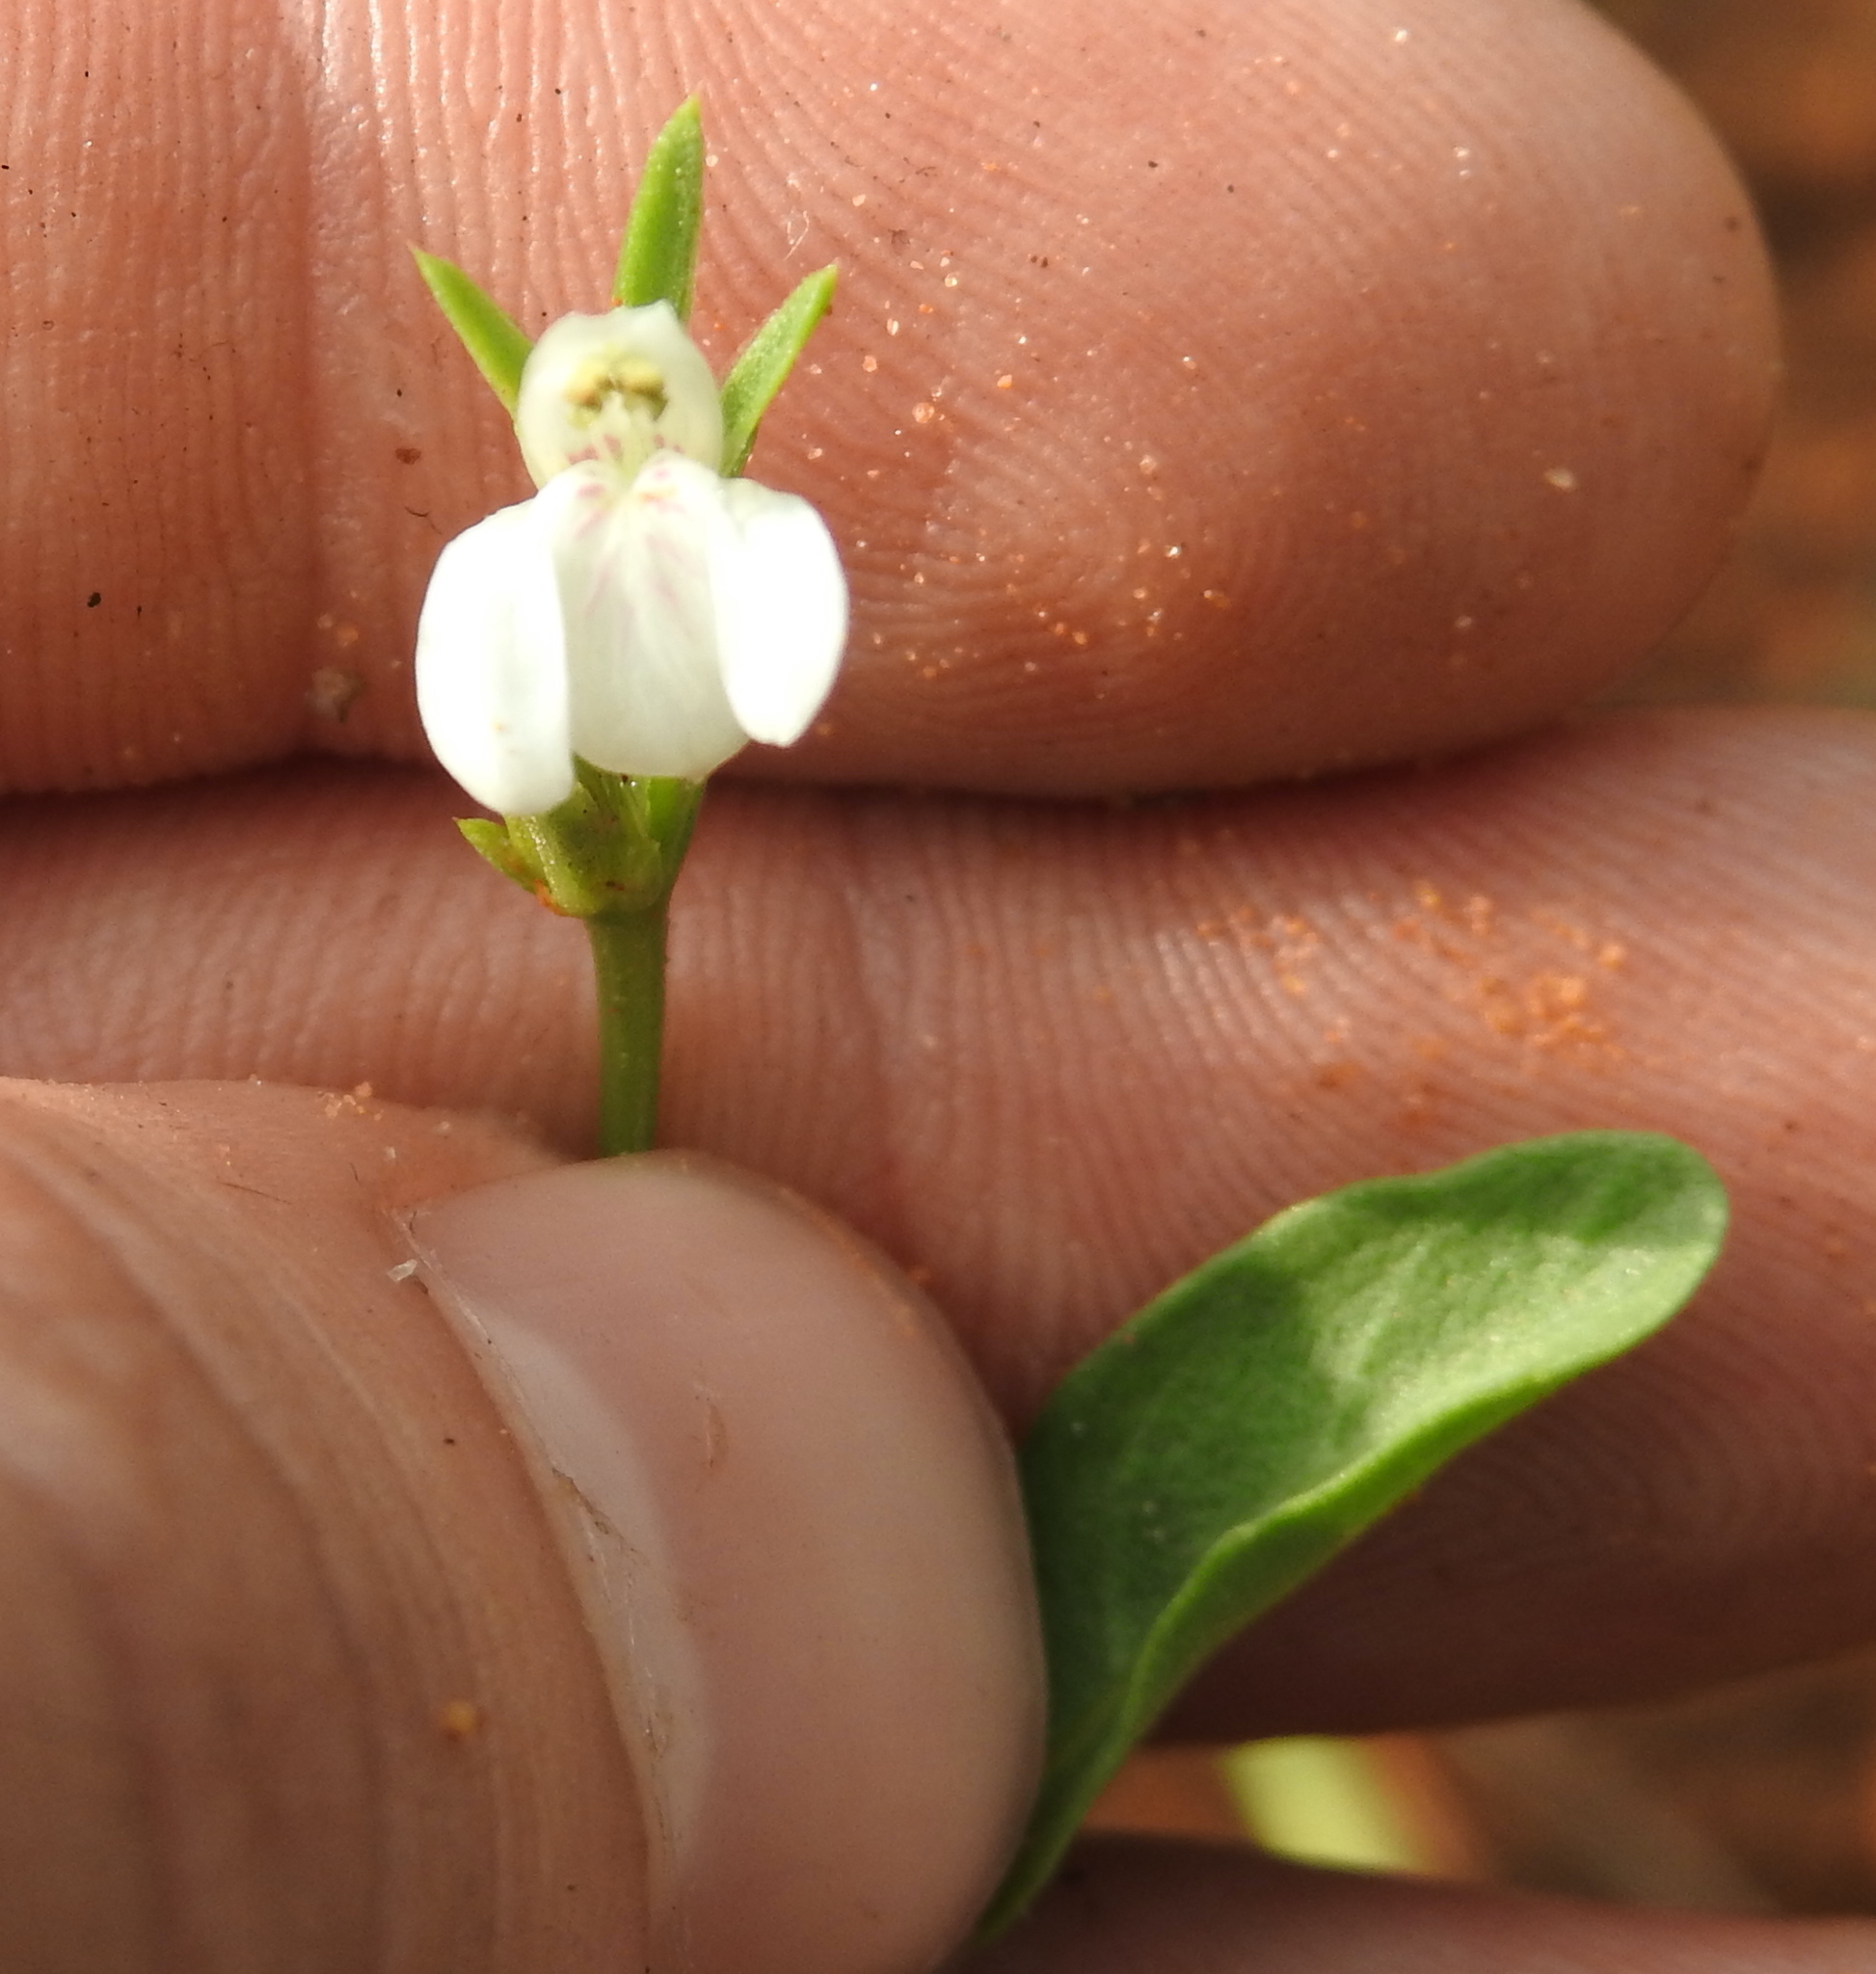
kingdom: Plantae
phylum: Tracheophyta
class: Magnoliopsida
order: Lamiales
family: Acanthaceae
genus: Justicia
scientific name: Justicia anagalloides
